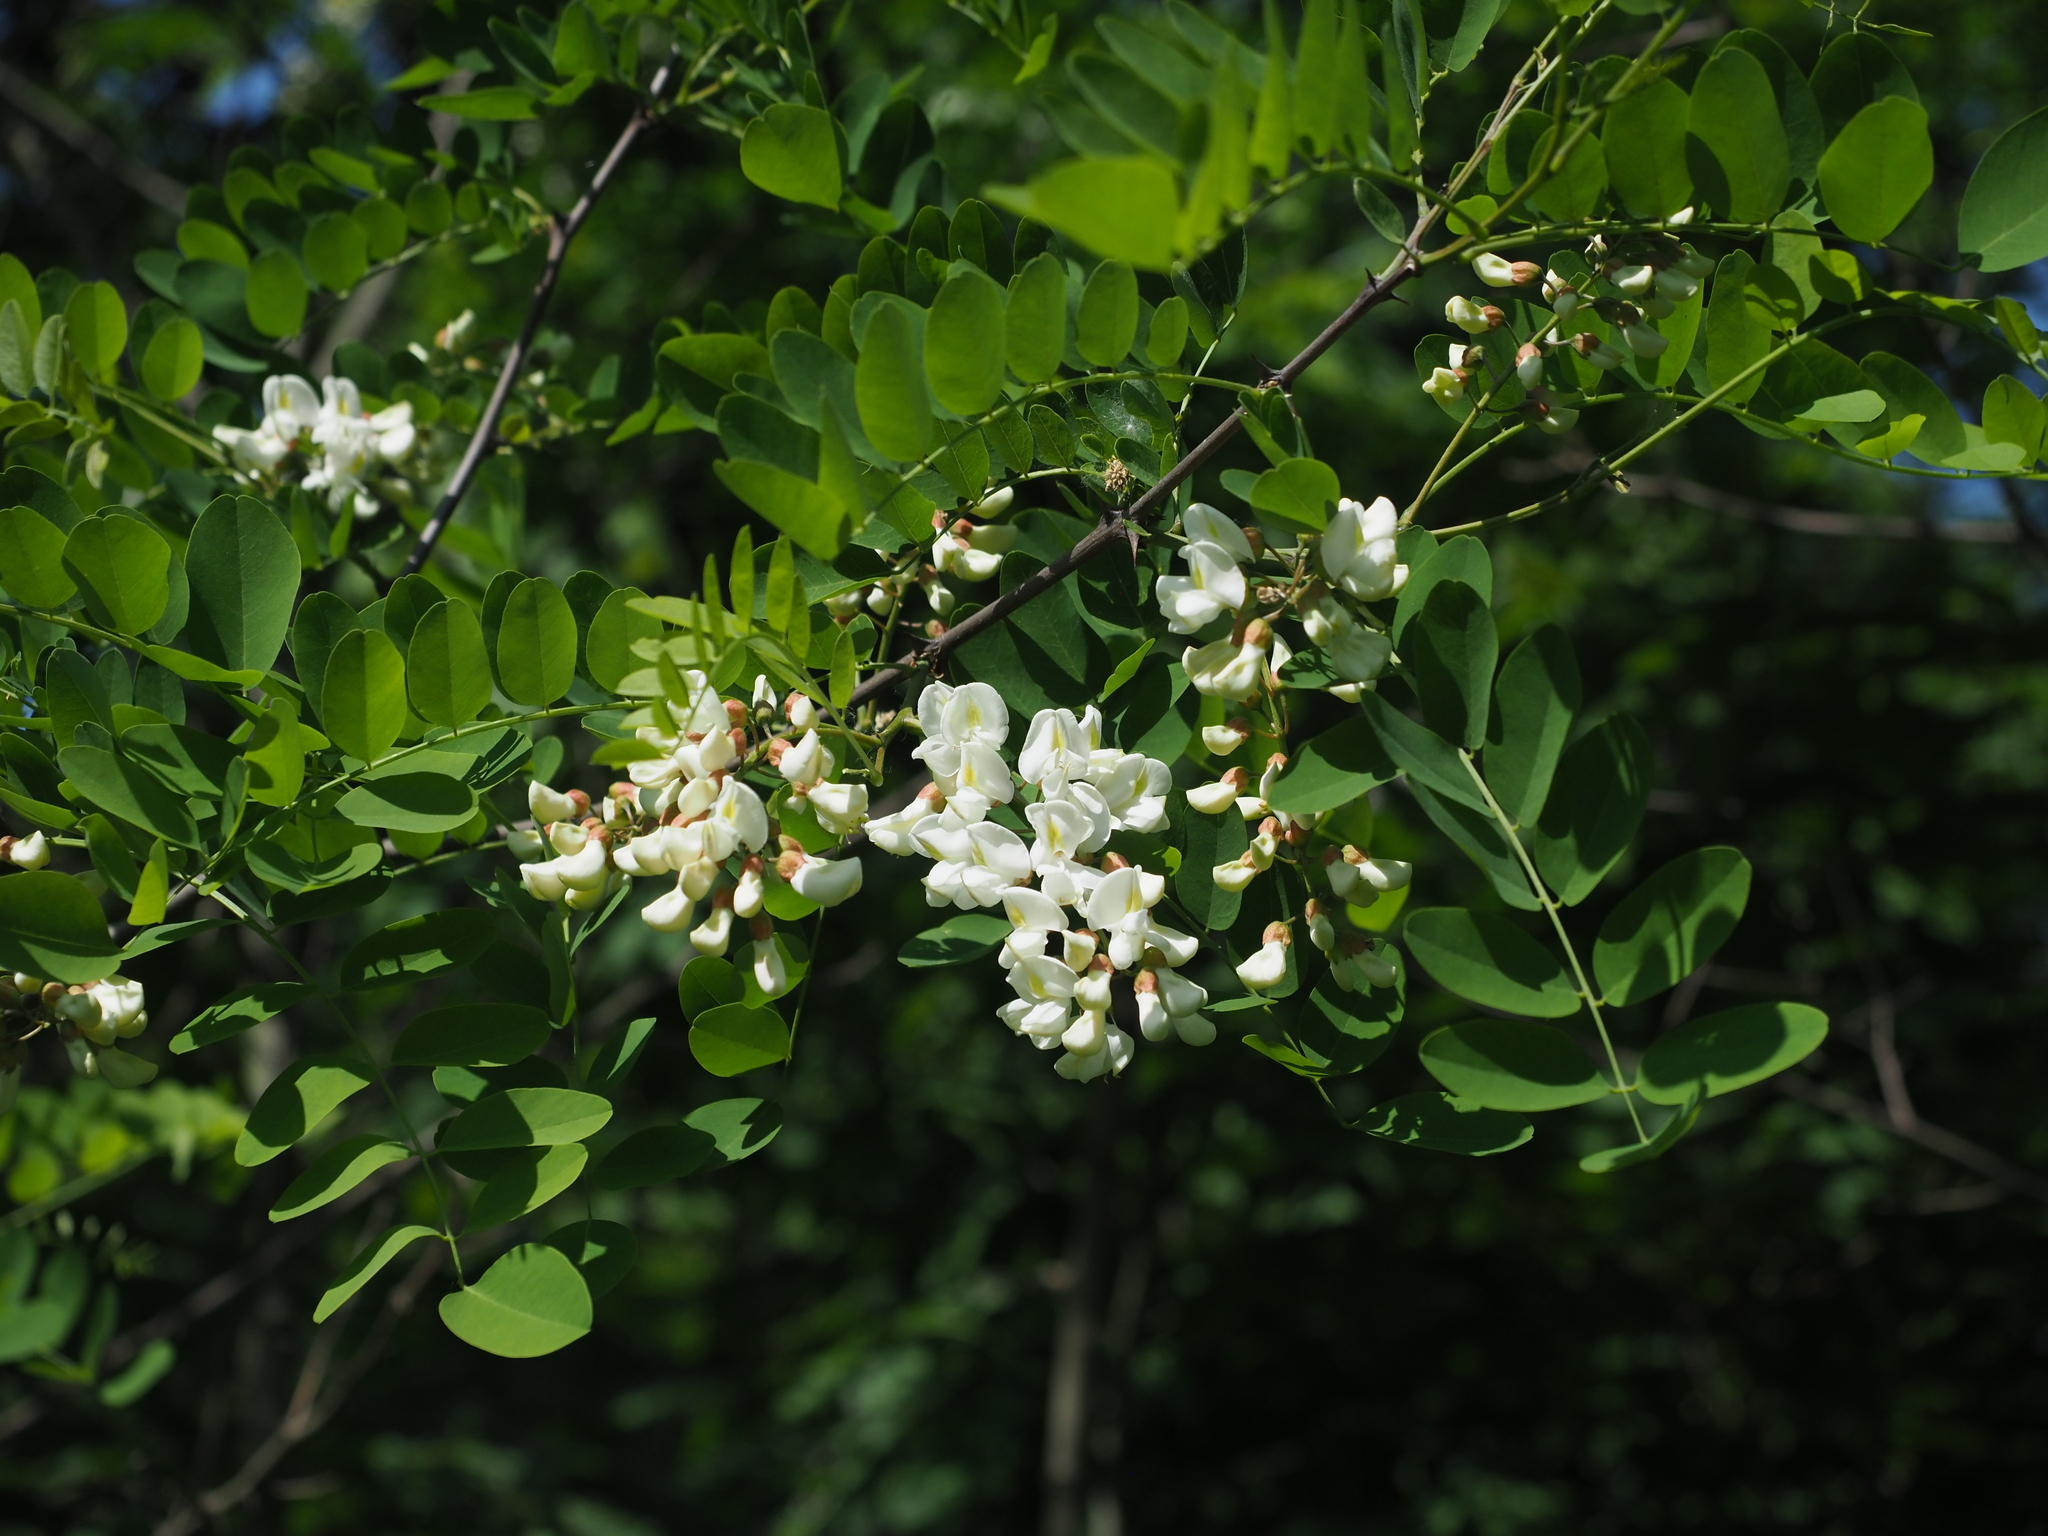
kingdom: Plantae
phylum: Tracheophyta
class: Magnoliopsida
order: Fabales
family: Fabaceae
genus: Robinia
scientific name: Robinia pseudoacacia
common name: Black locust
